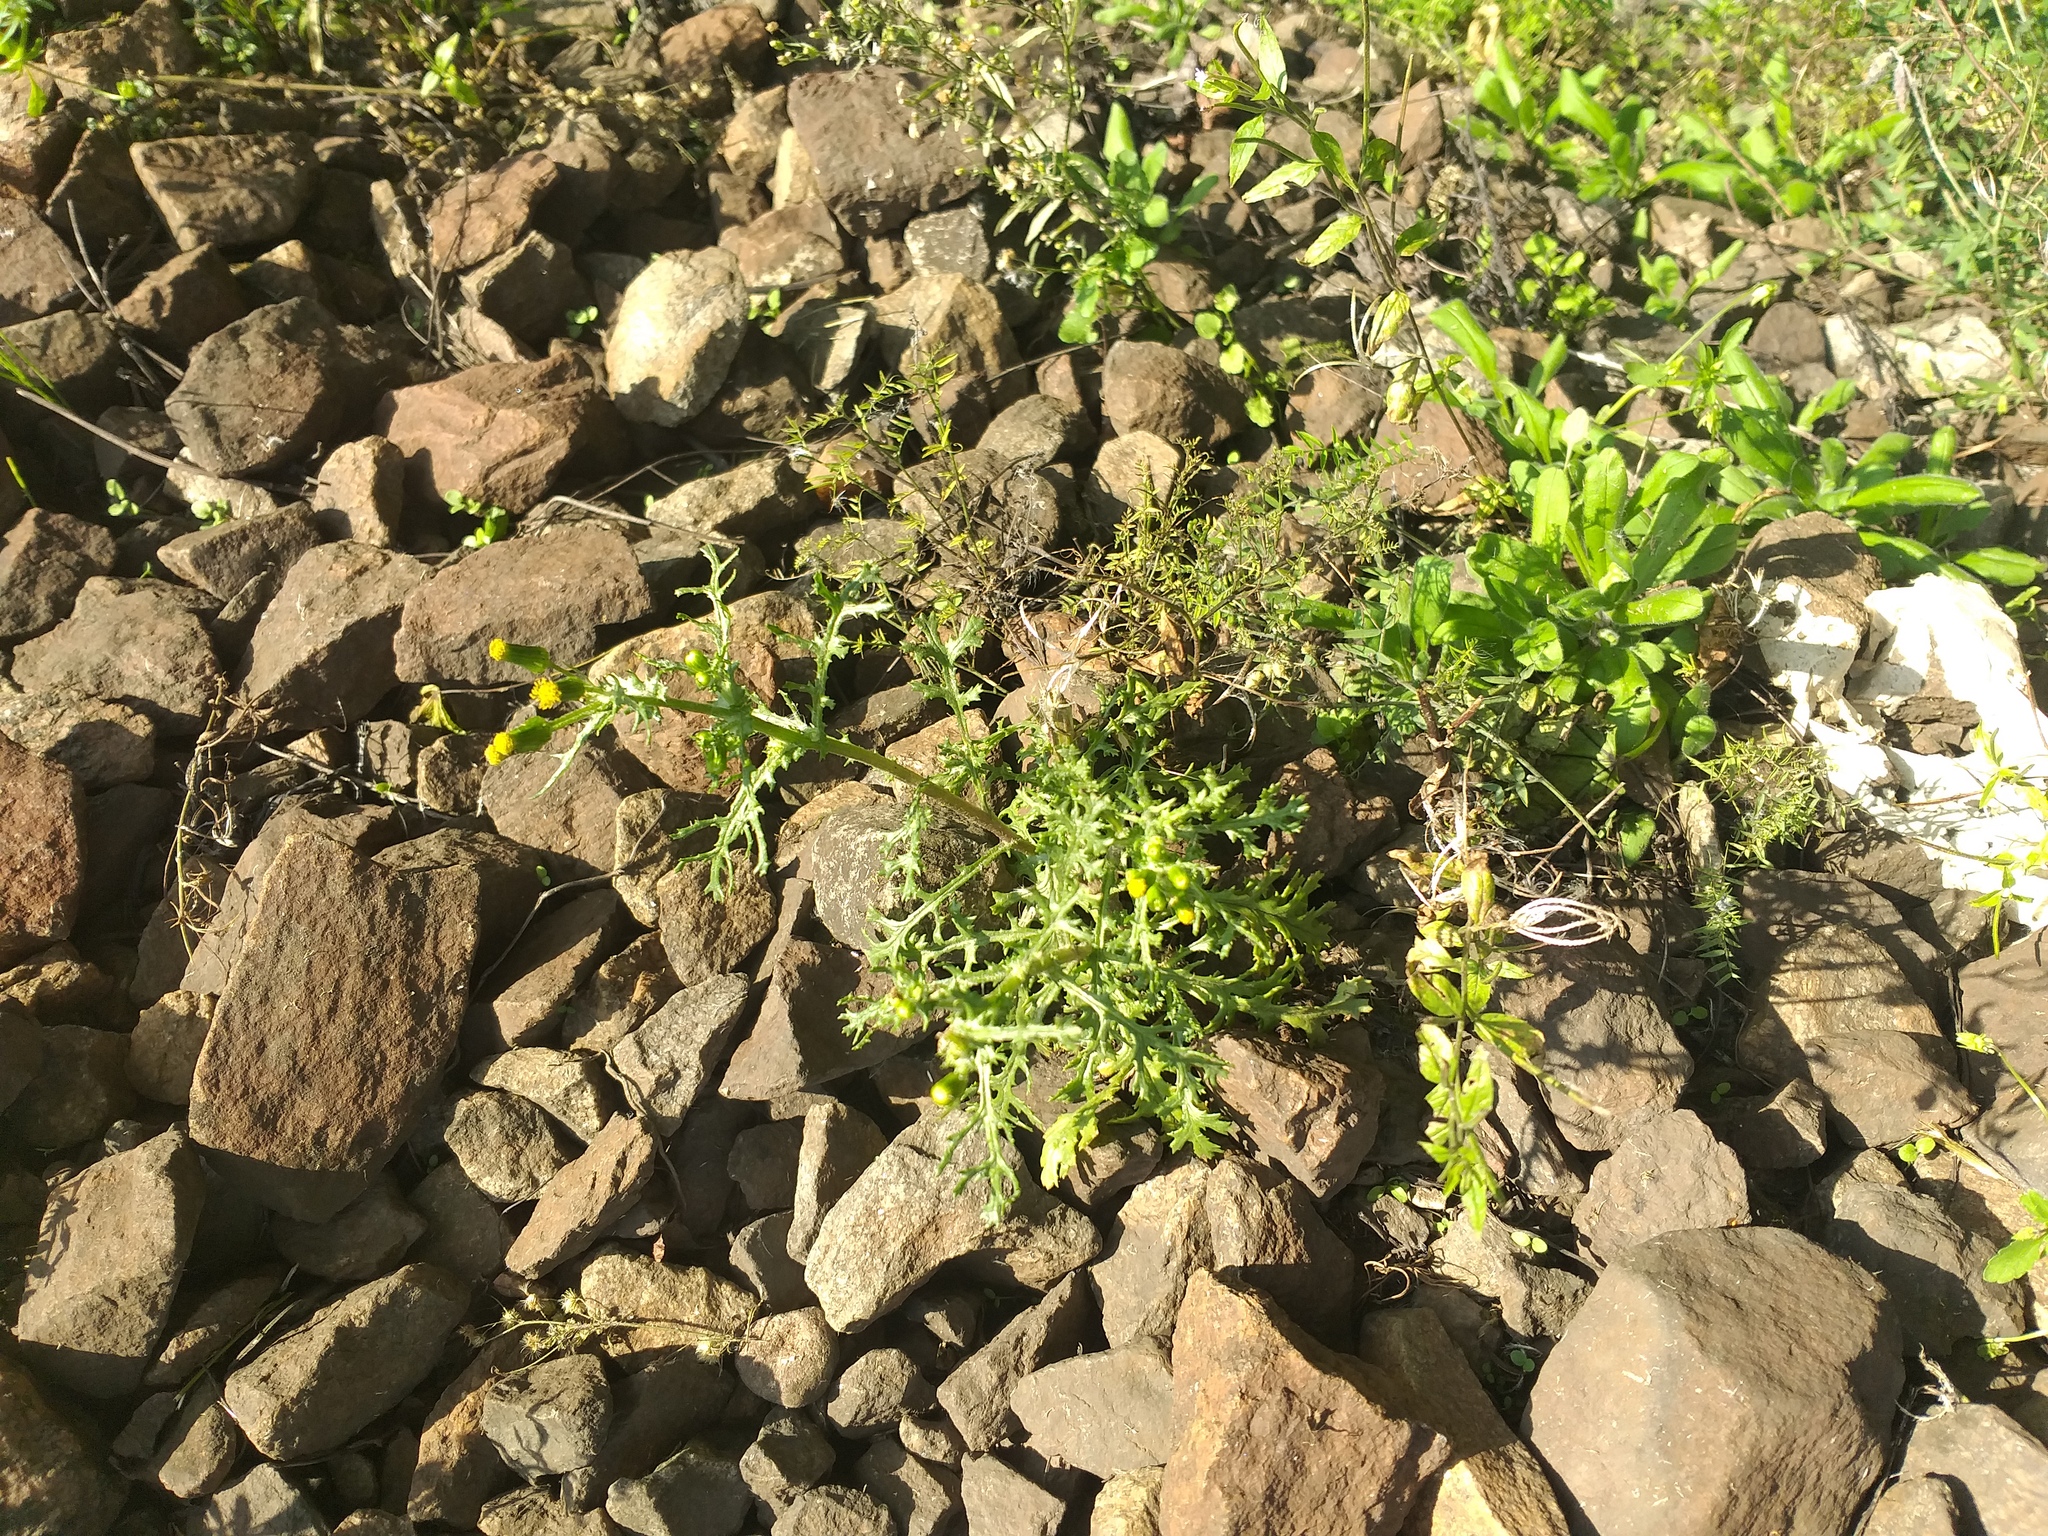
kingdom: Plantae
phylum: Tracheophyta
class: Magnoliopsida
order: Asterales
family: Asteraceae
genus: Senecio
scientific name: Senecio vulgaris
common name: Old-man-in-the-spring
